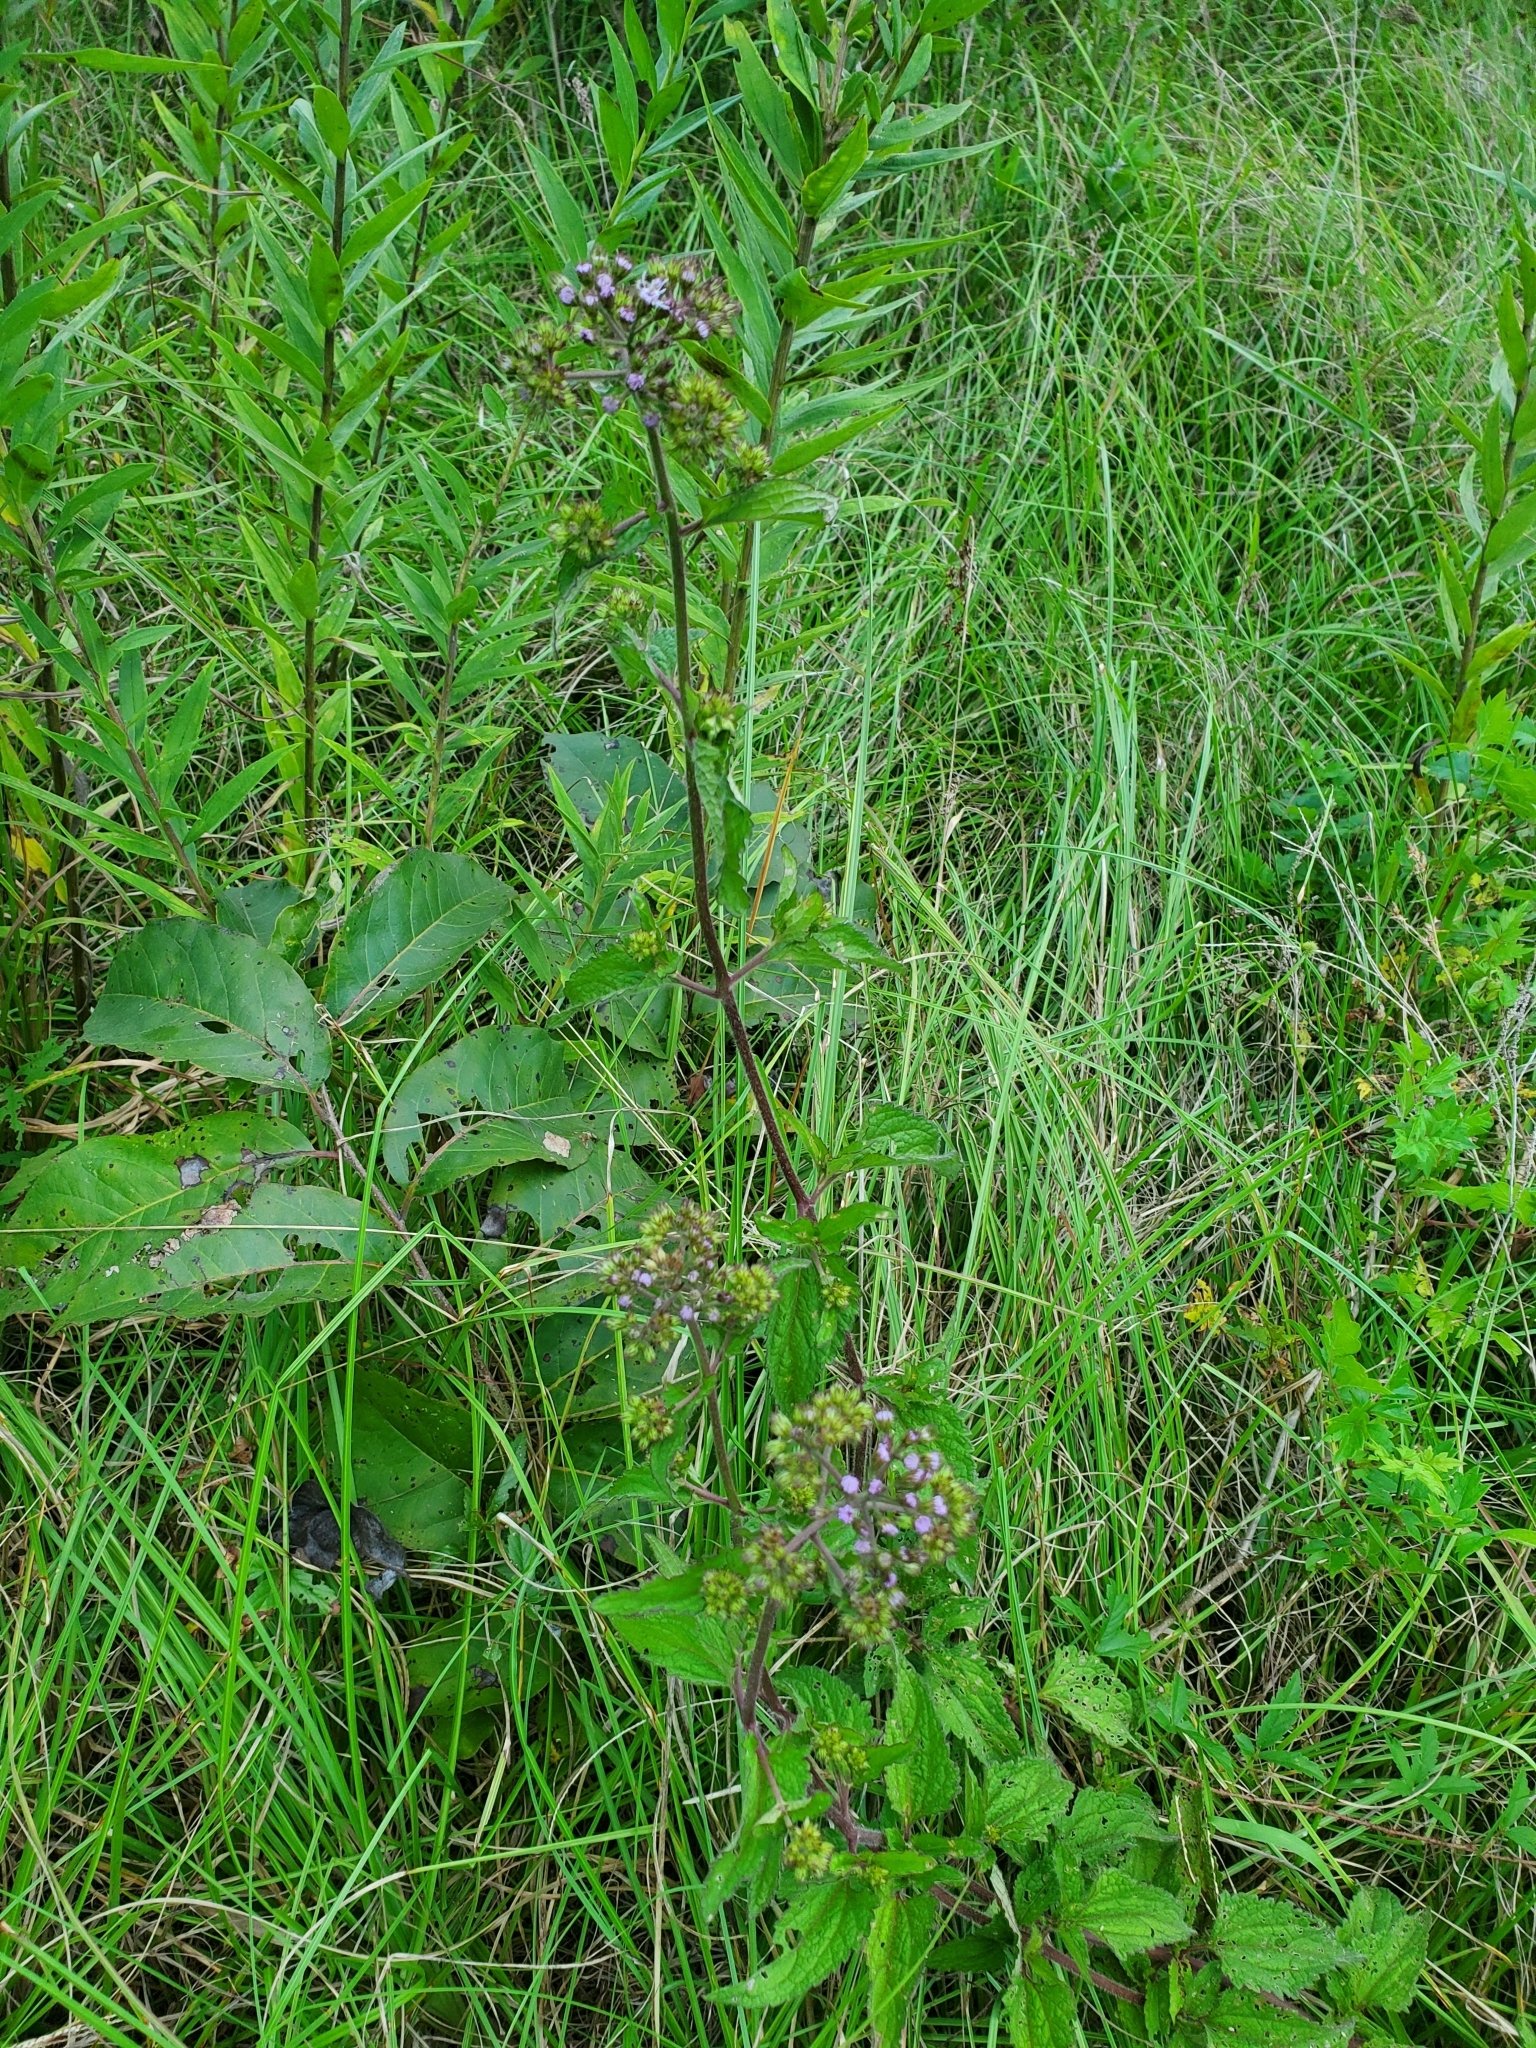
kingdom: Plantae
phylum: Tracheophyta
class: Magnoliopsida
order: Asterales
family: Asteraceae
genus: Conoclinium
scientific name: Conoclinium coelestinum
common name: Blue mistflower
